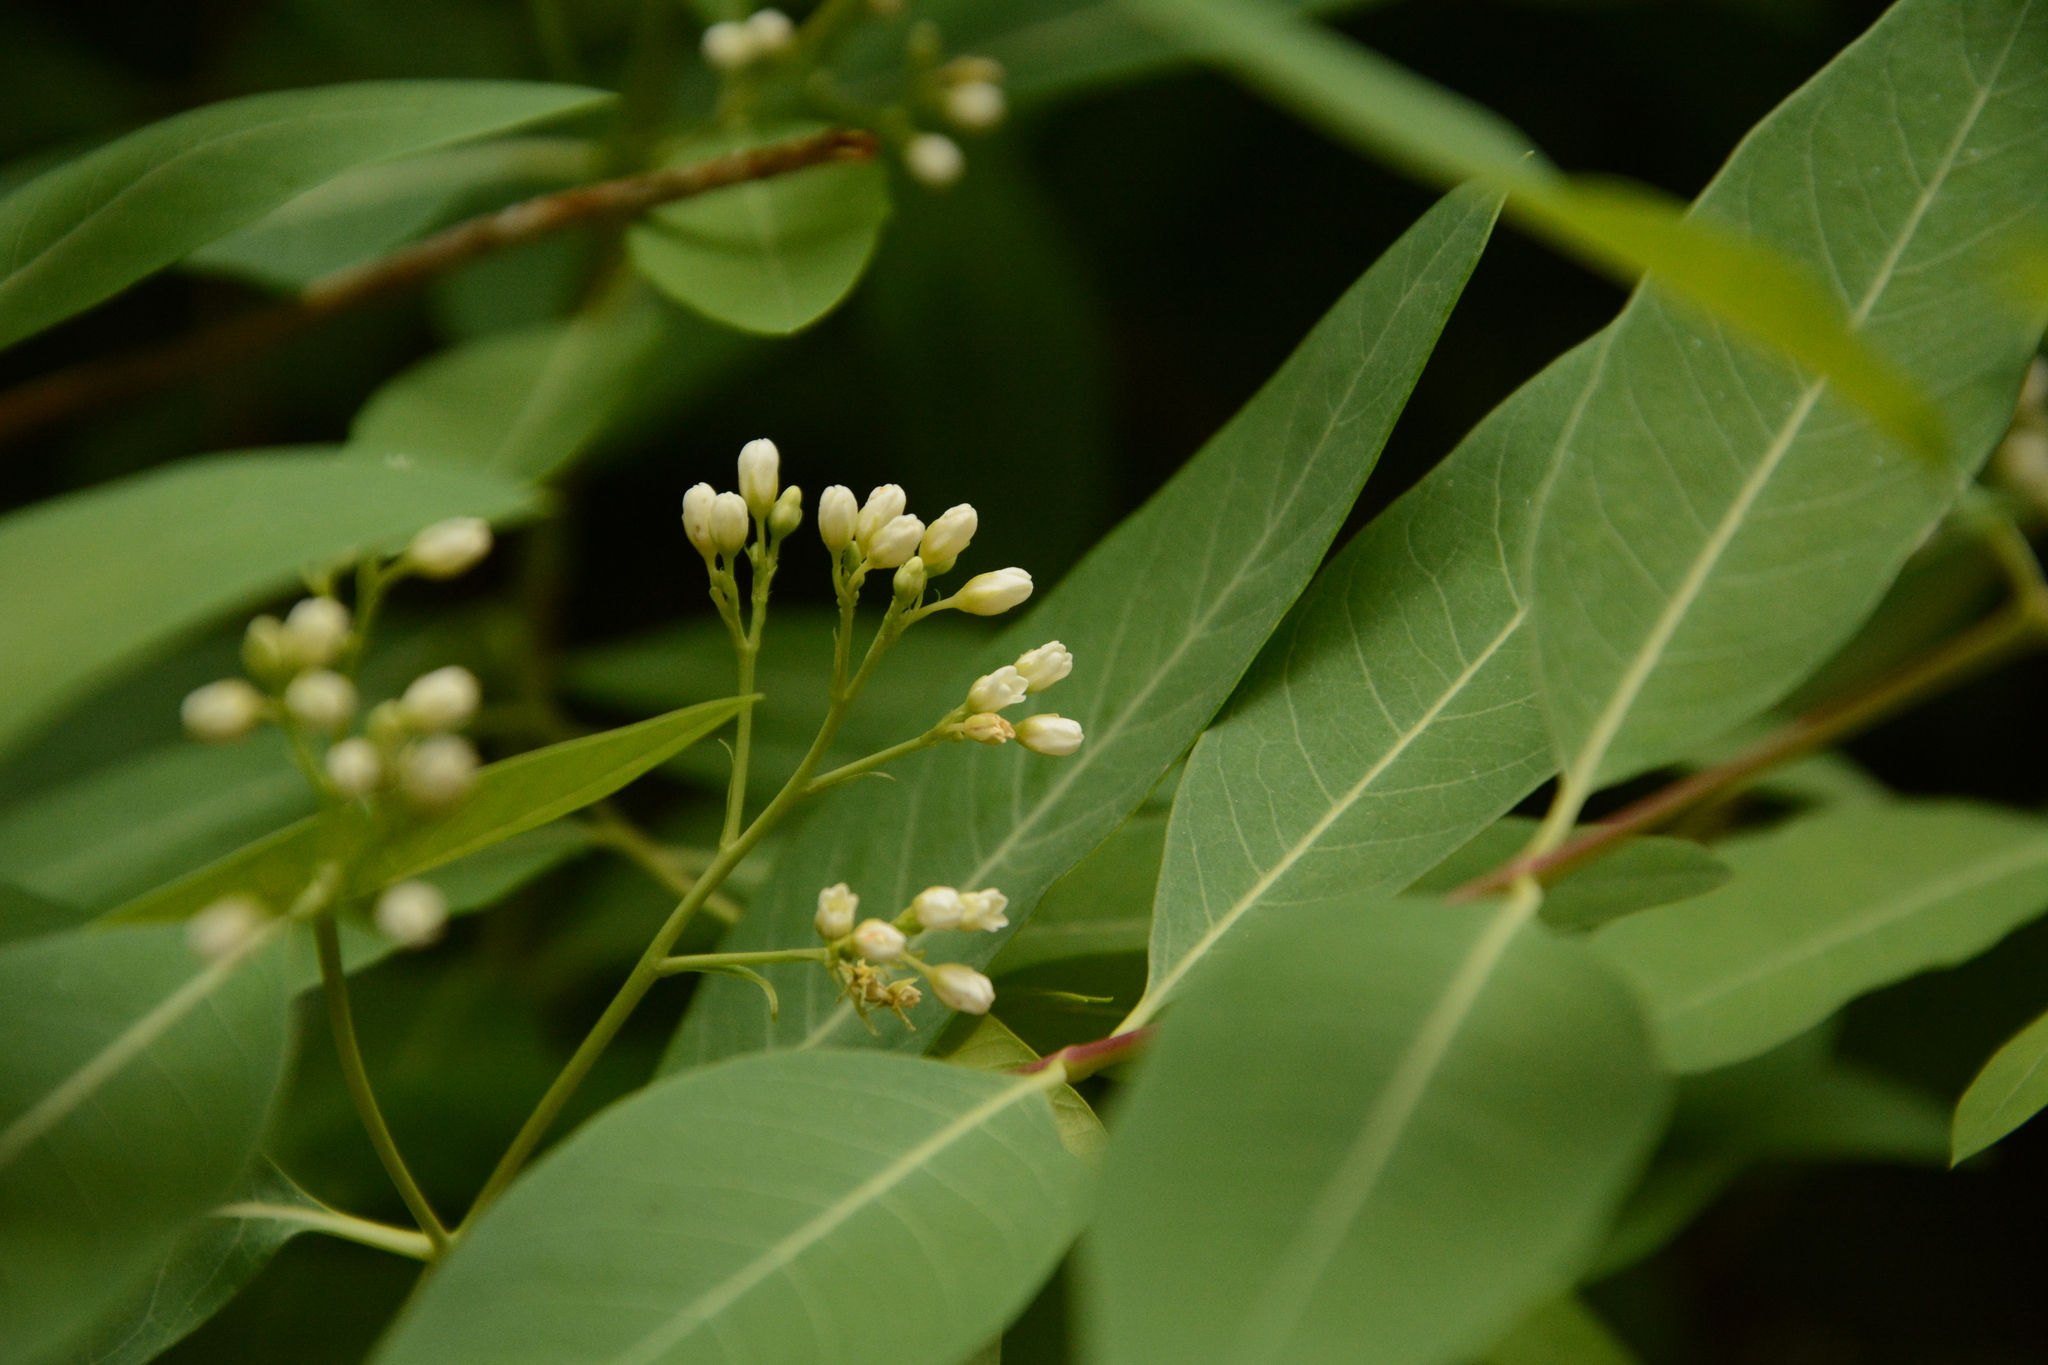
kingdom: Plantae
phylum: Tracheophyta
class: Magnoliopsida
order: Gentianales
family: Apocynaceae
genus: Apocynum
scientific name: Apocynum cannabinum
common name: Hemp dogbane
